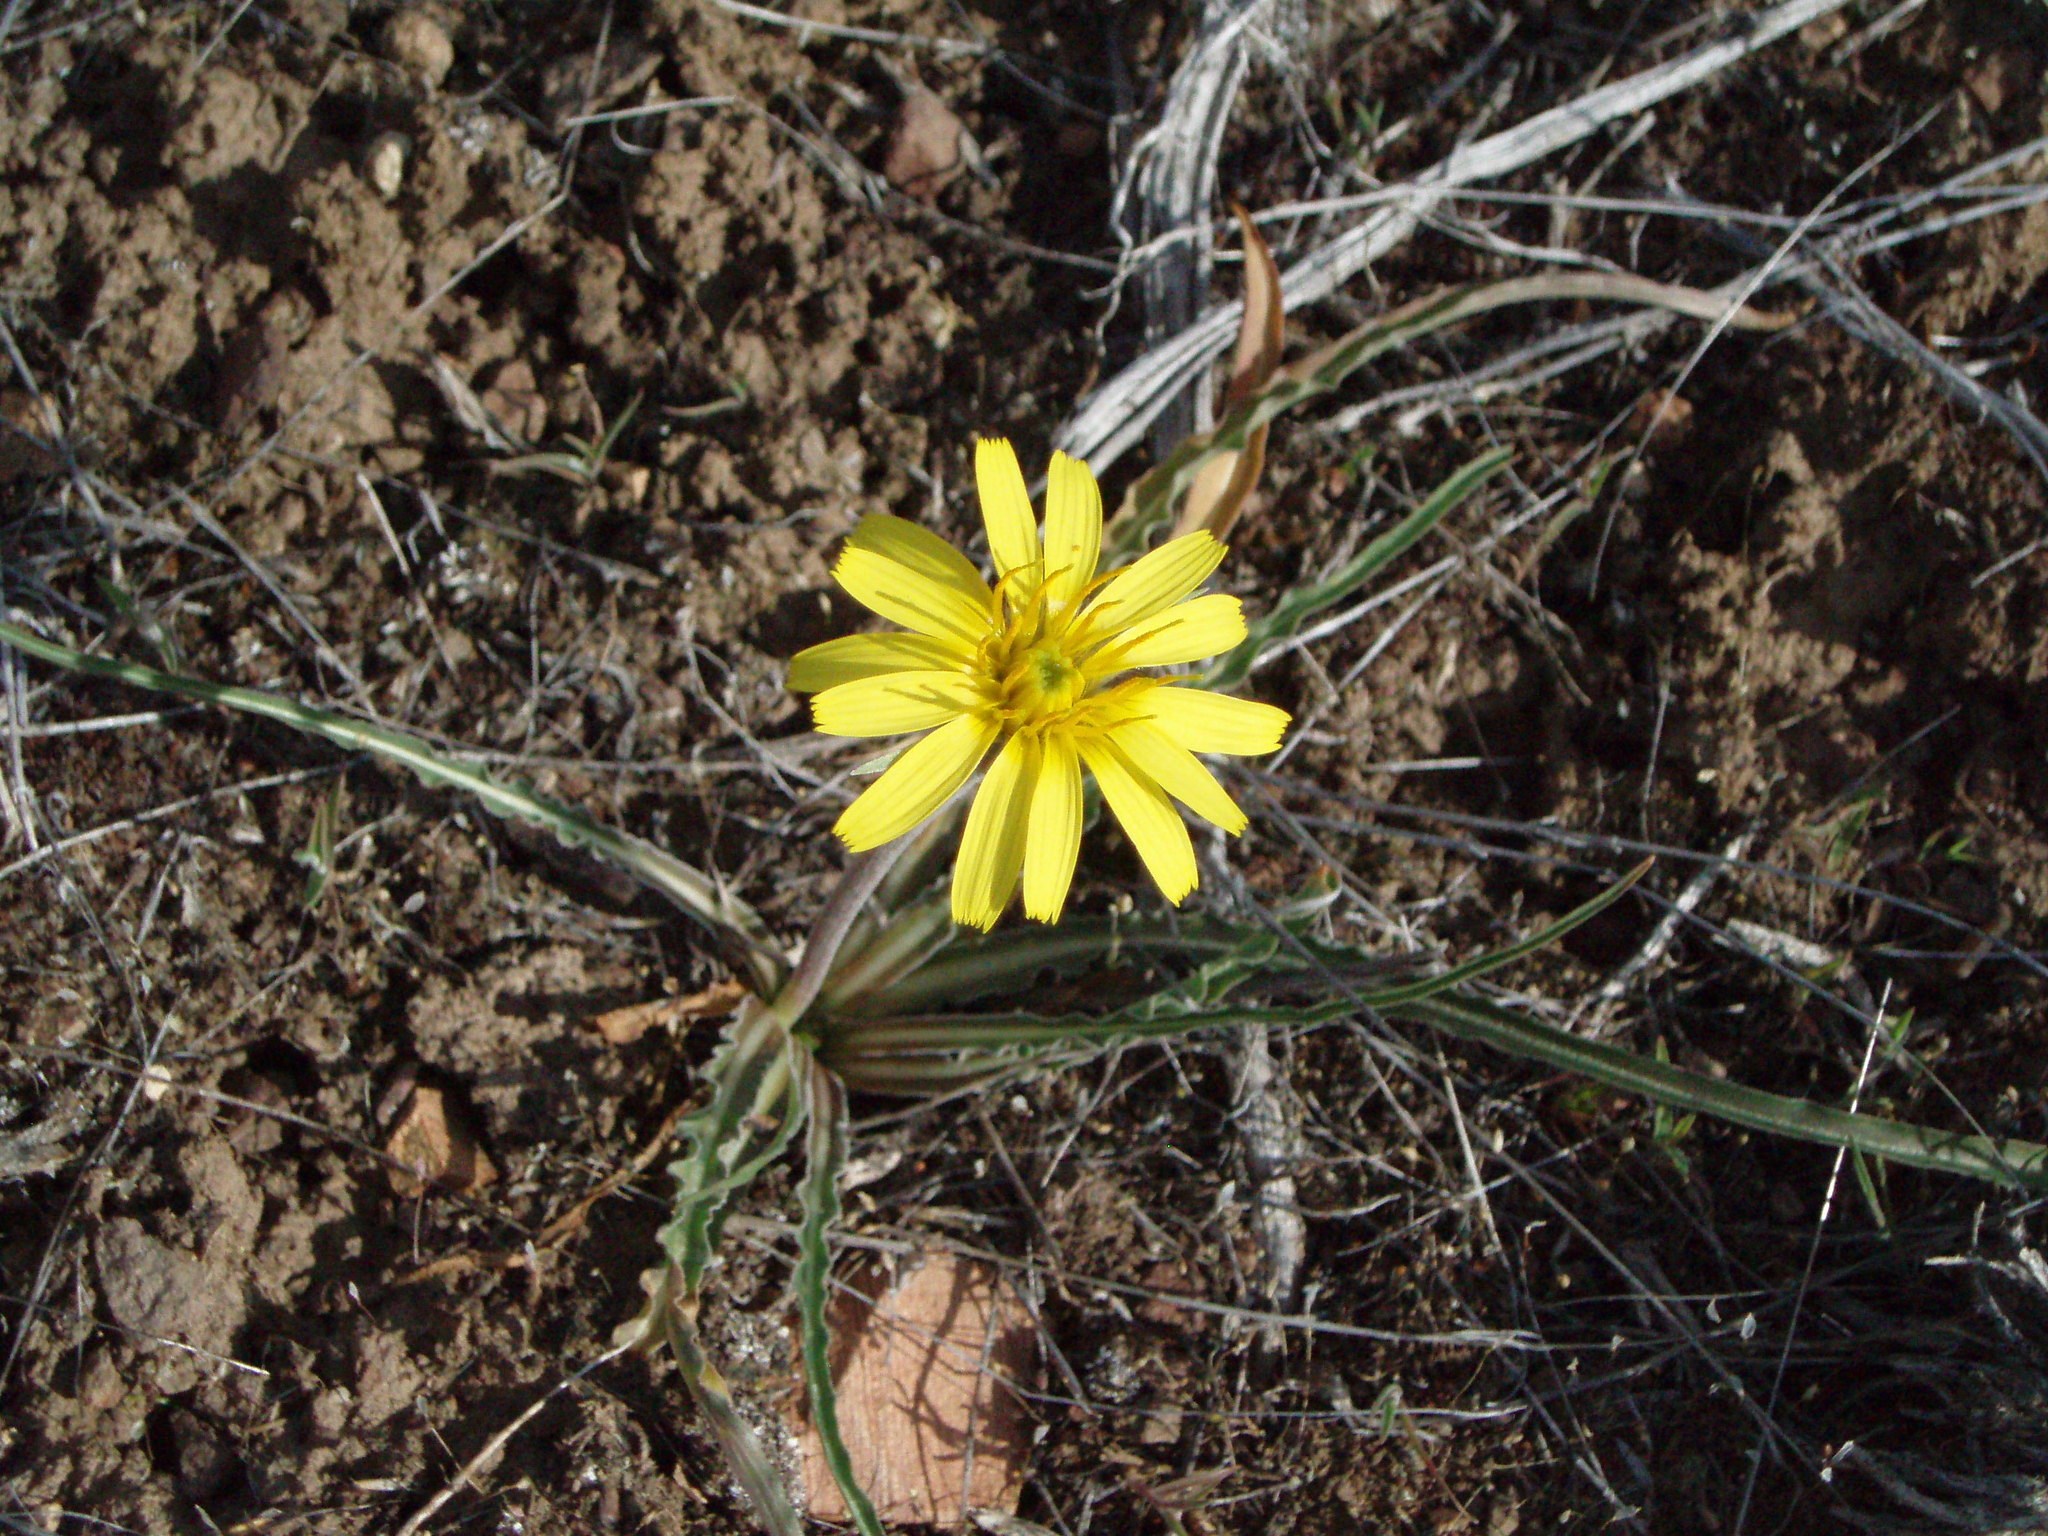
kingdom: Plantae
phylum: Tracheophyta
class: Magnoliopsida
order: Asterales
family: Asteraceae
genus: Microseris
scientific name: Microseris troximoides
